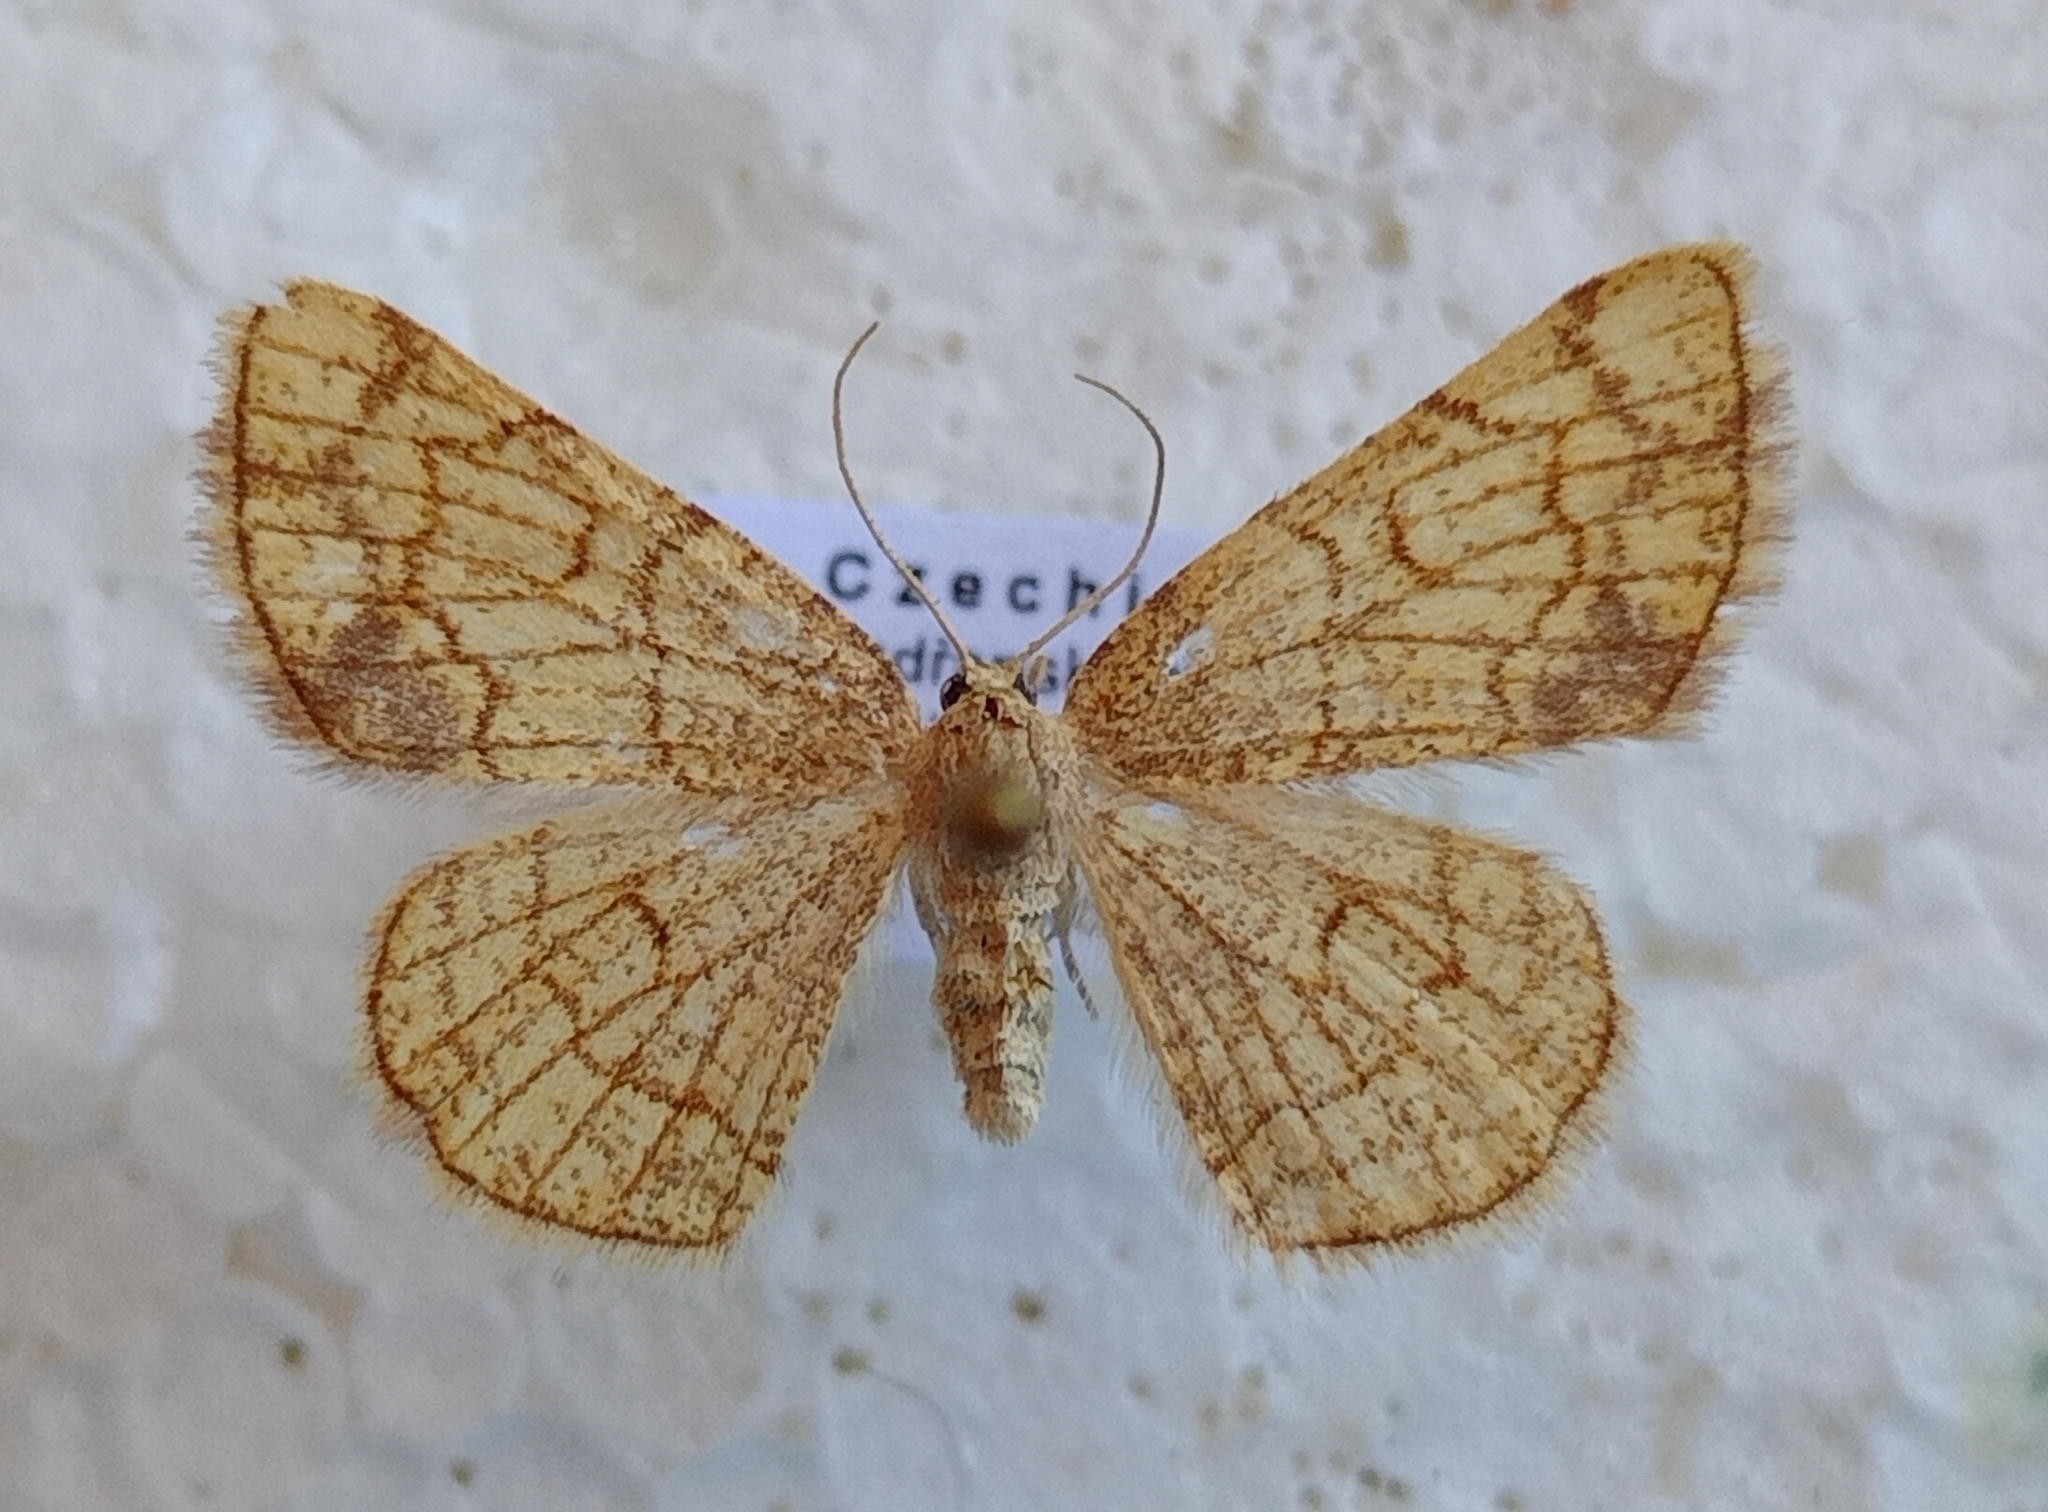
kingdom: Animalia
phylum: Arthropoda
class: Insecta
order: Lepidoptera
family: Geometridae
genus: Stegania
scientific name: Stegania dilectaria
